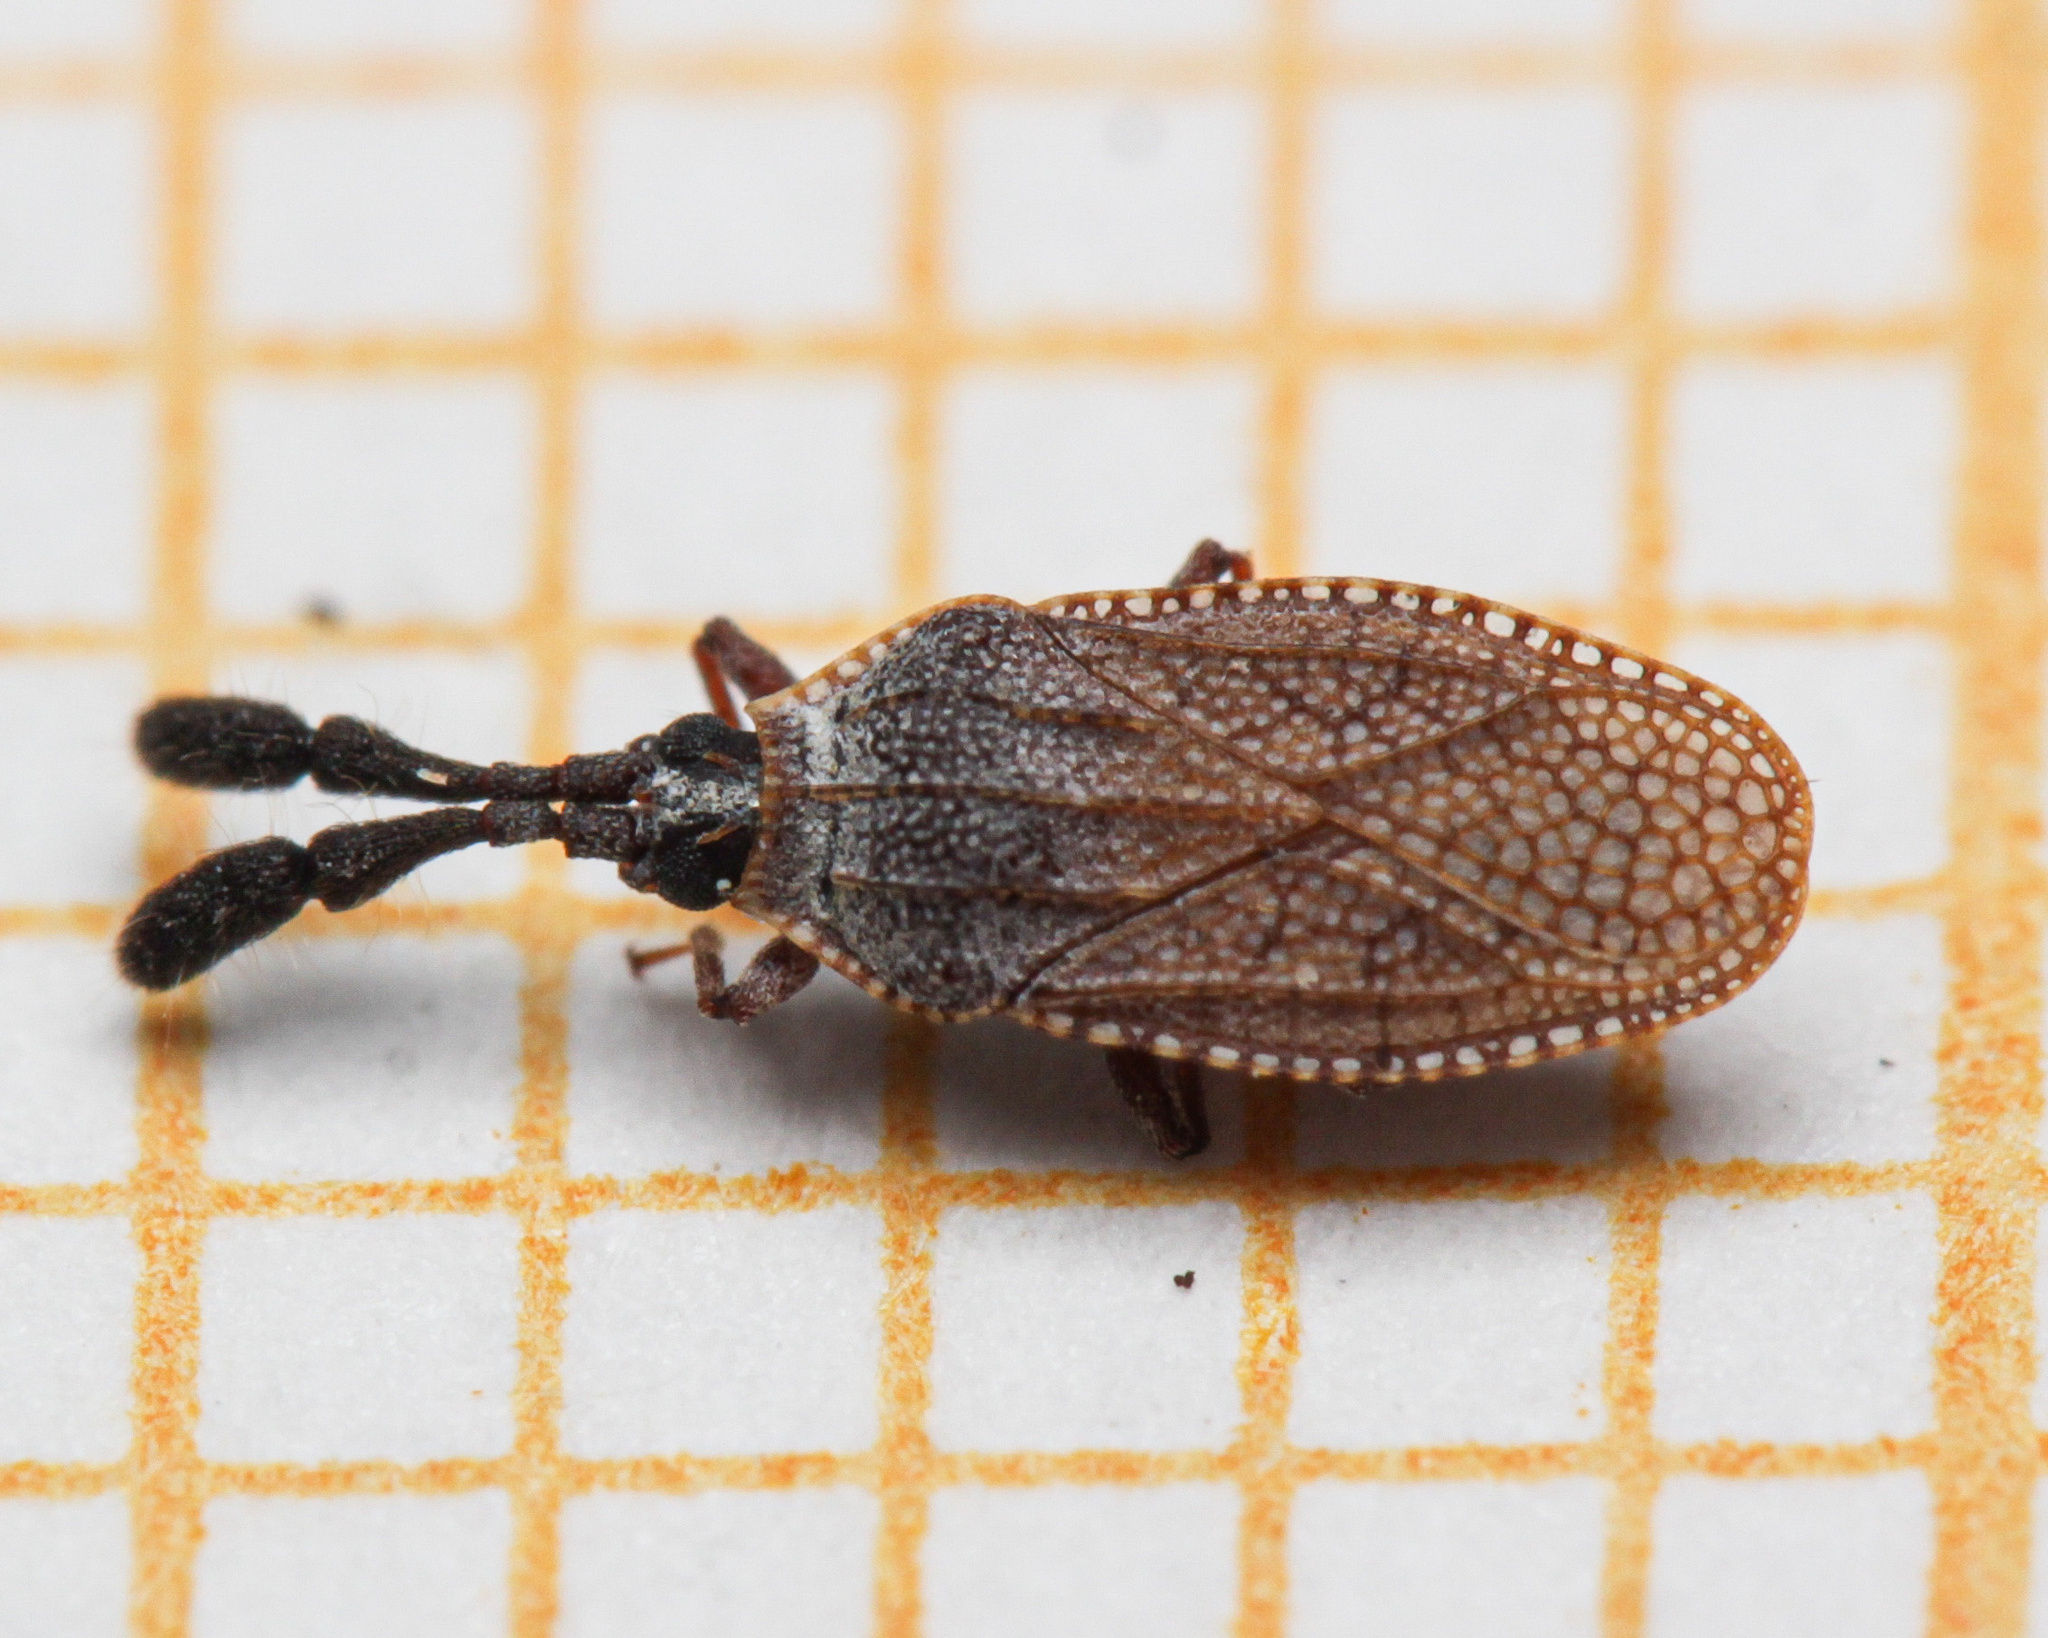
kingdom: Animalia
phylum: Arthropoda
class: Insecta
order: Hemiptera
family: Tingidae
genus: Copium
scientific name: Copium teucrii
